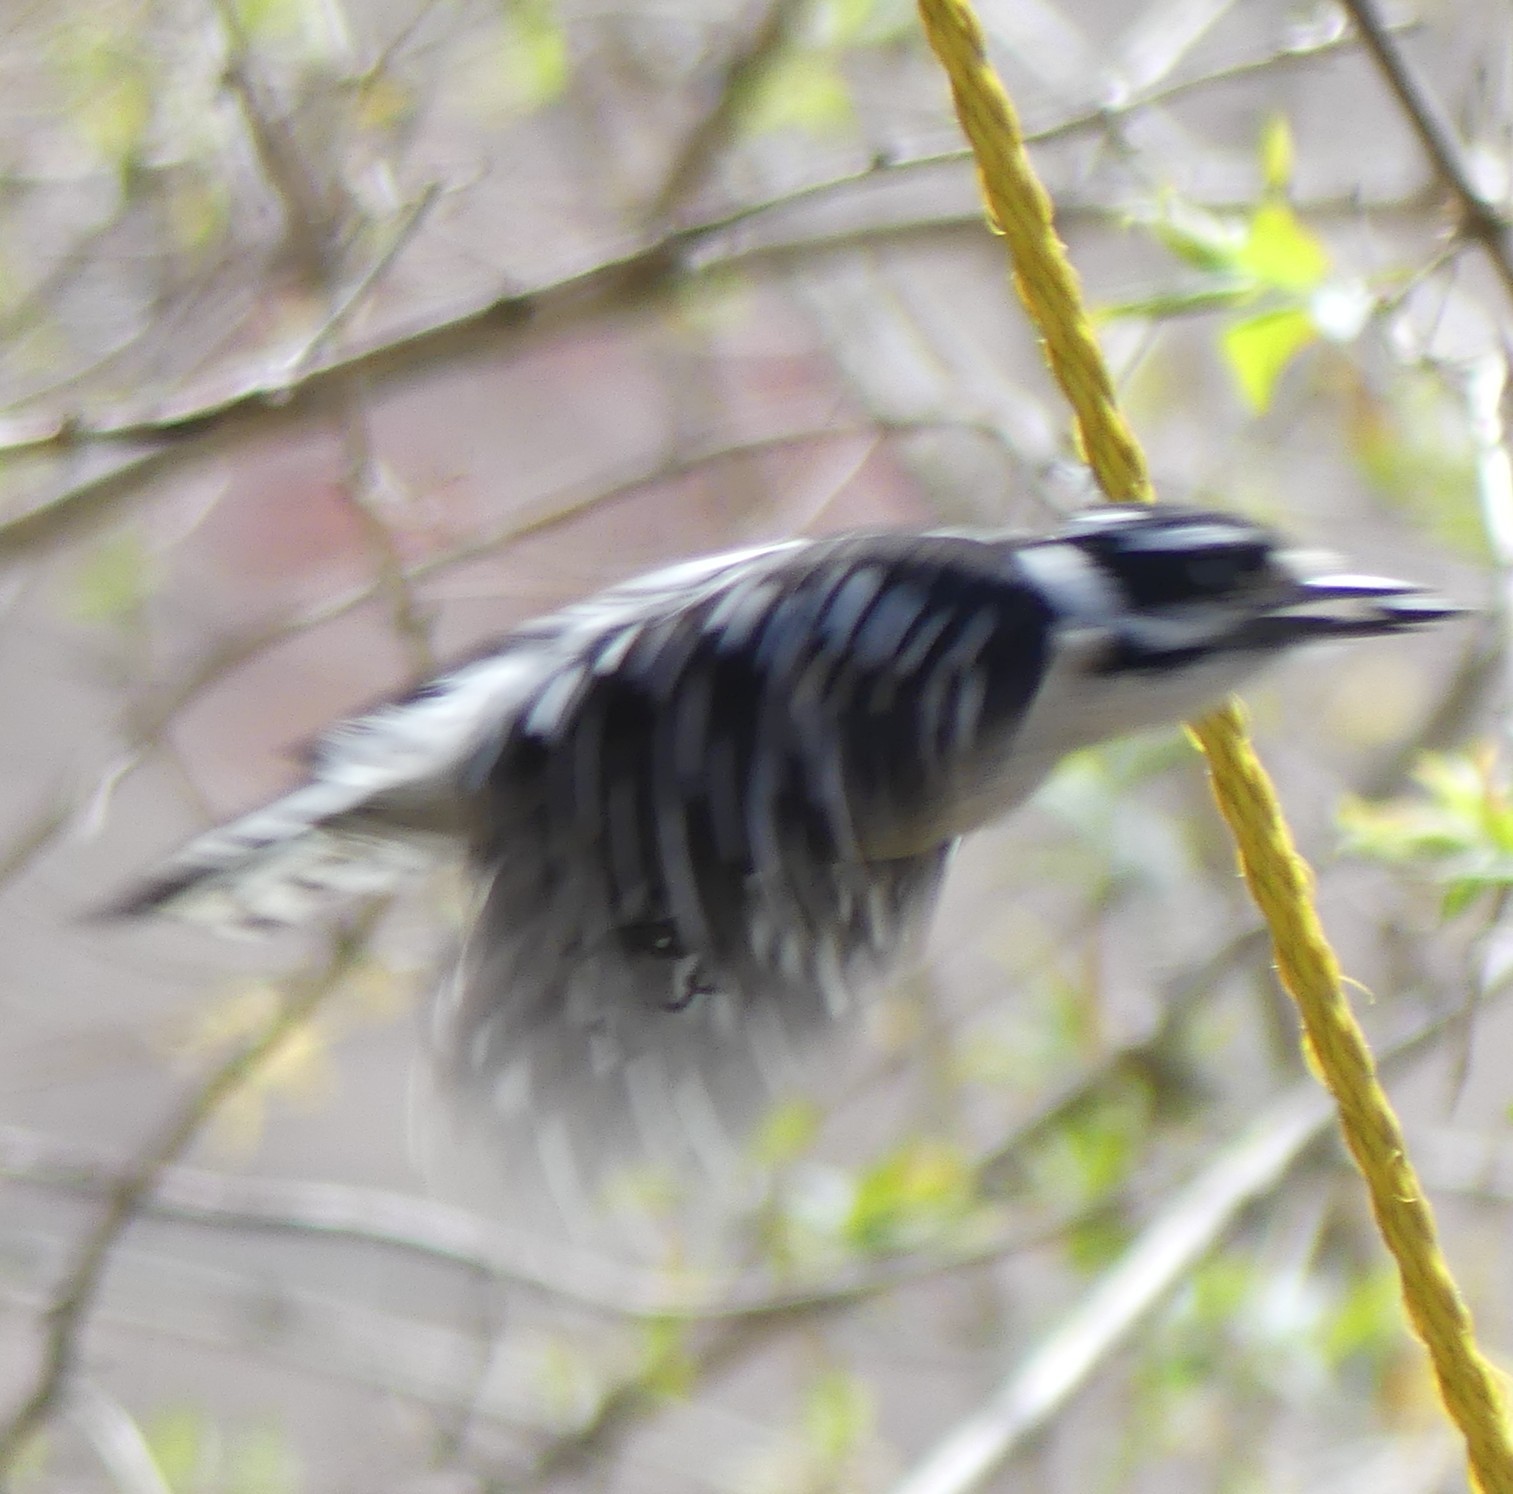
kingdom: Animalia
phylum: Chordata
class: Aves
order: Piciformes
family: Picidae
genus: Dryobates
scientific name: Dryobates pubescens
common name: Downy woodpecker
